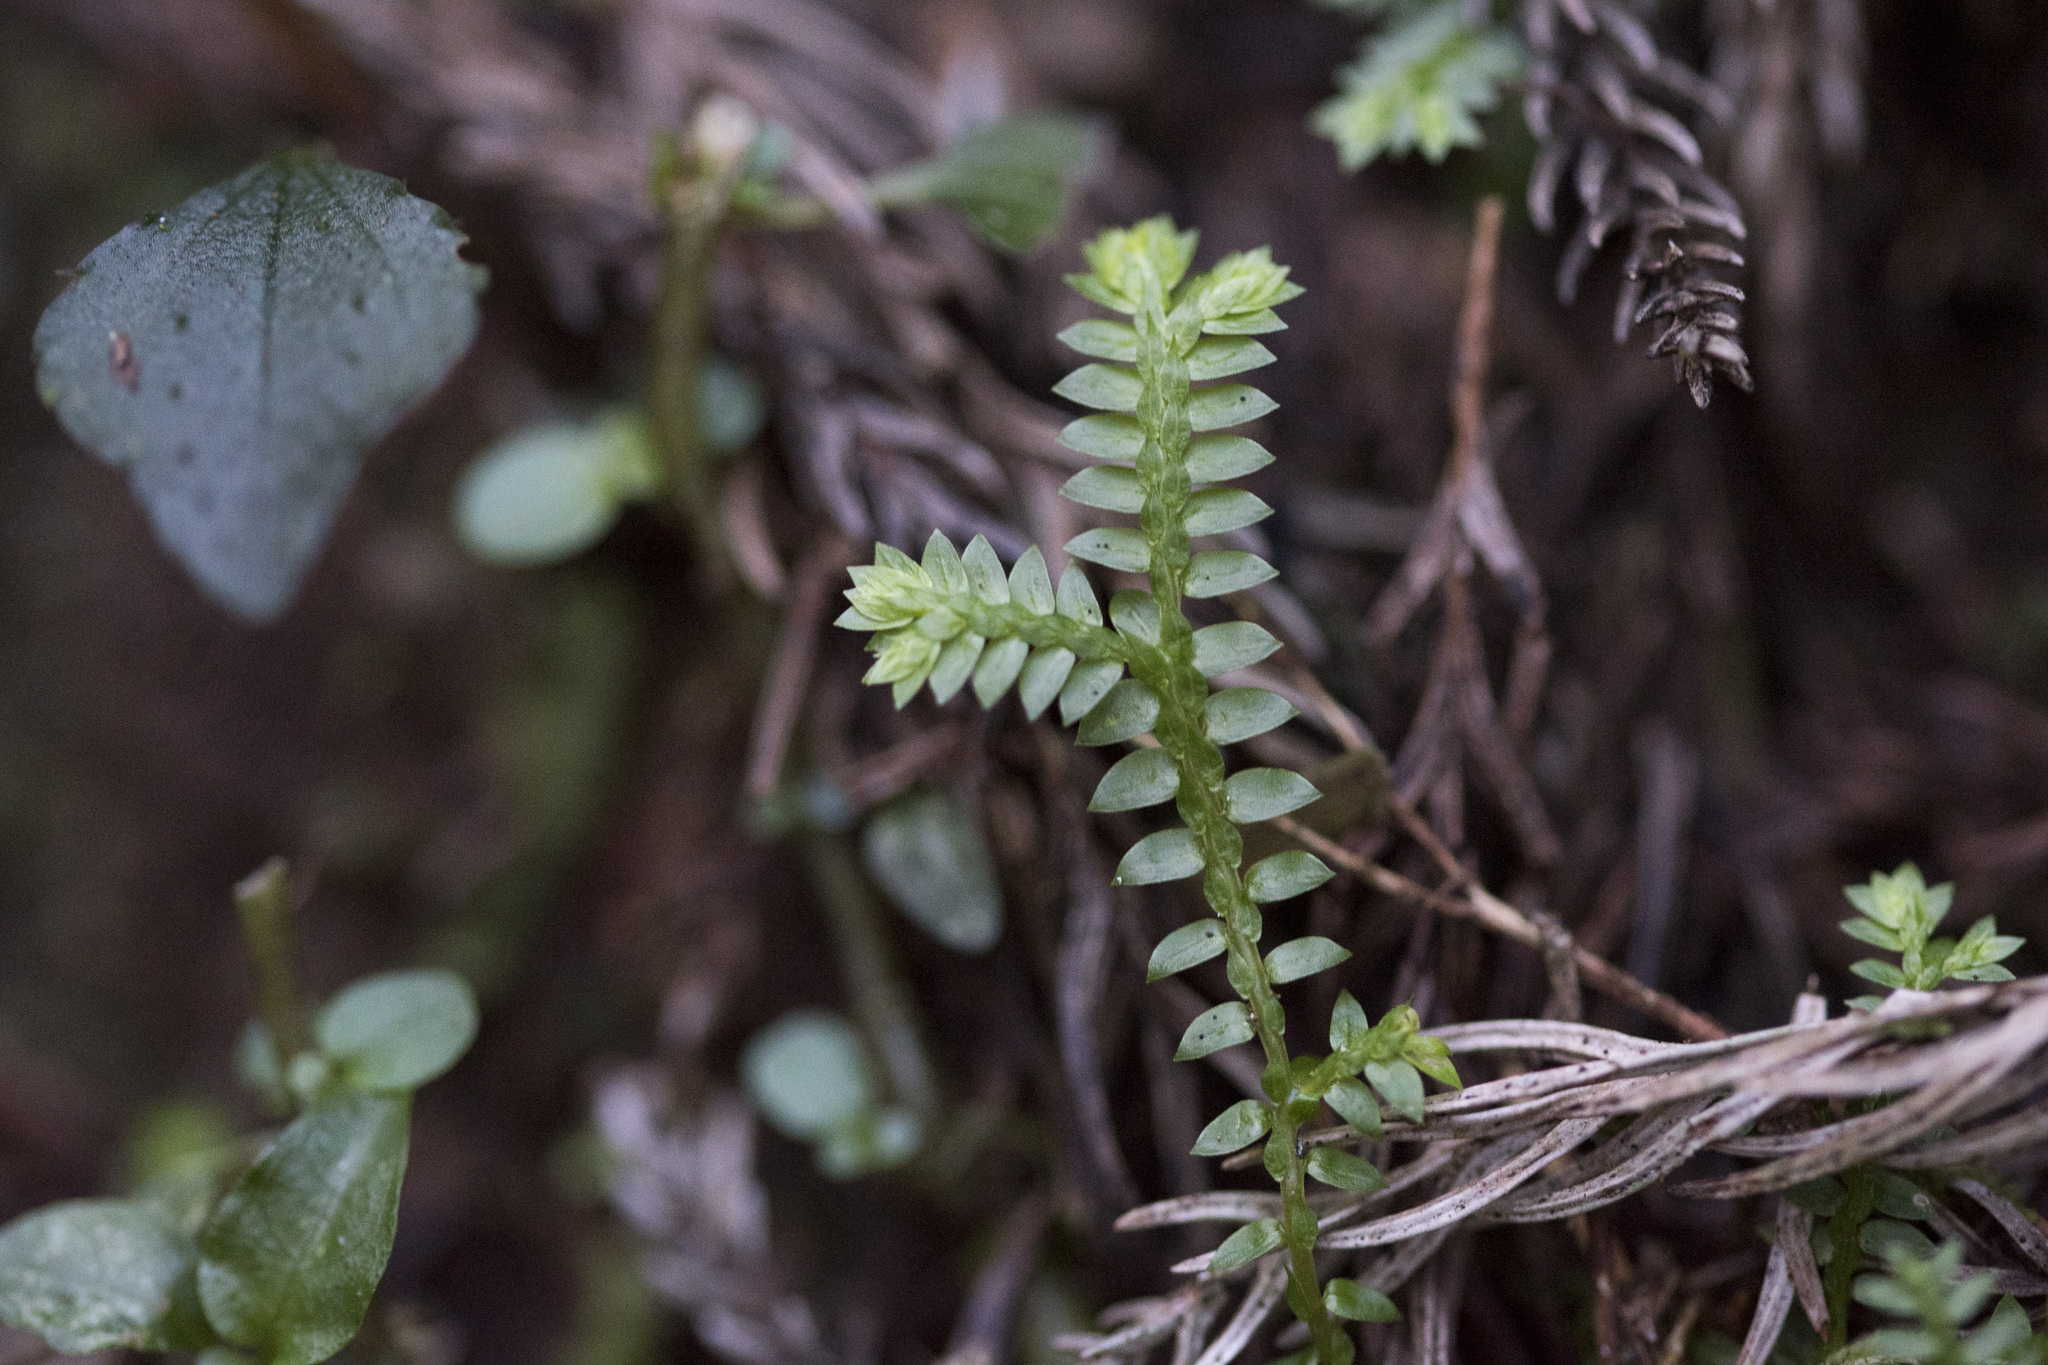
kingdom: Plantae
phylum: Tracheophyta
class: Lycopodiopsida
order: Selaginellales
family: Selaginellaceae
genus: Selaginella
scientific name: Selaginella remotifolia
